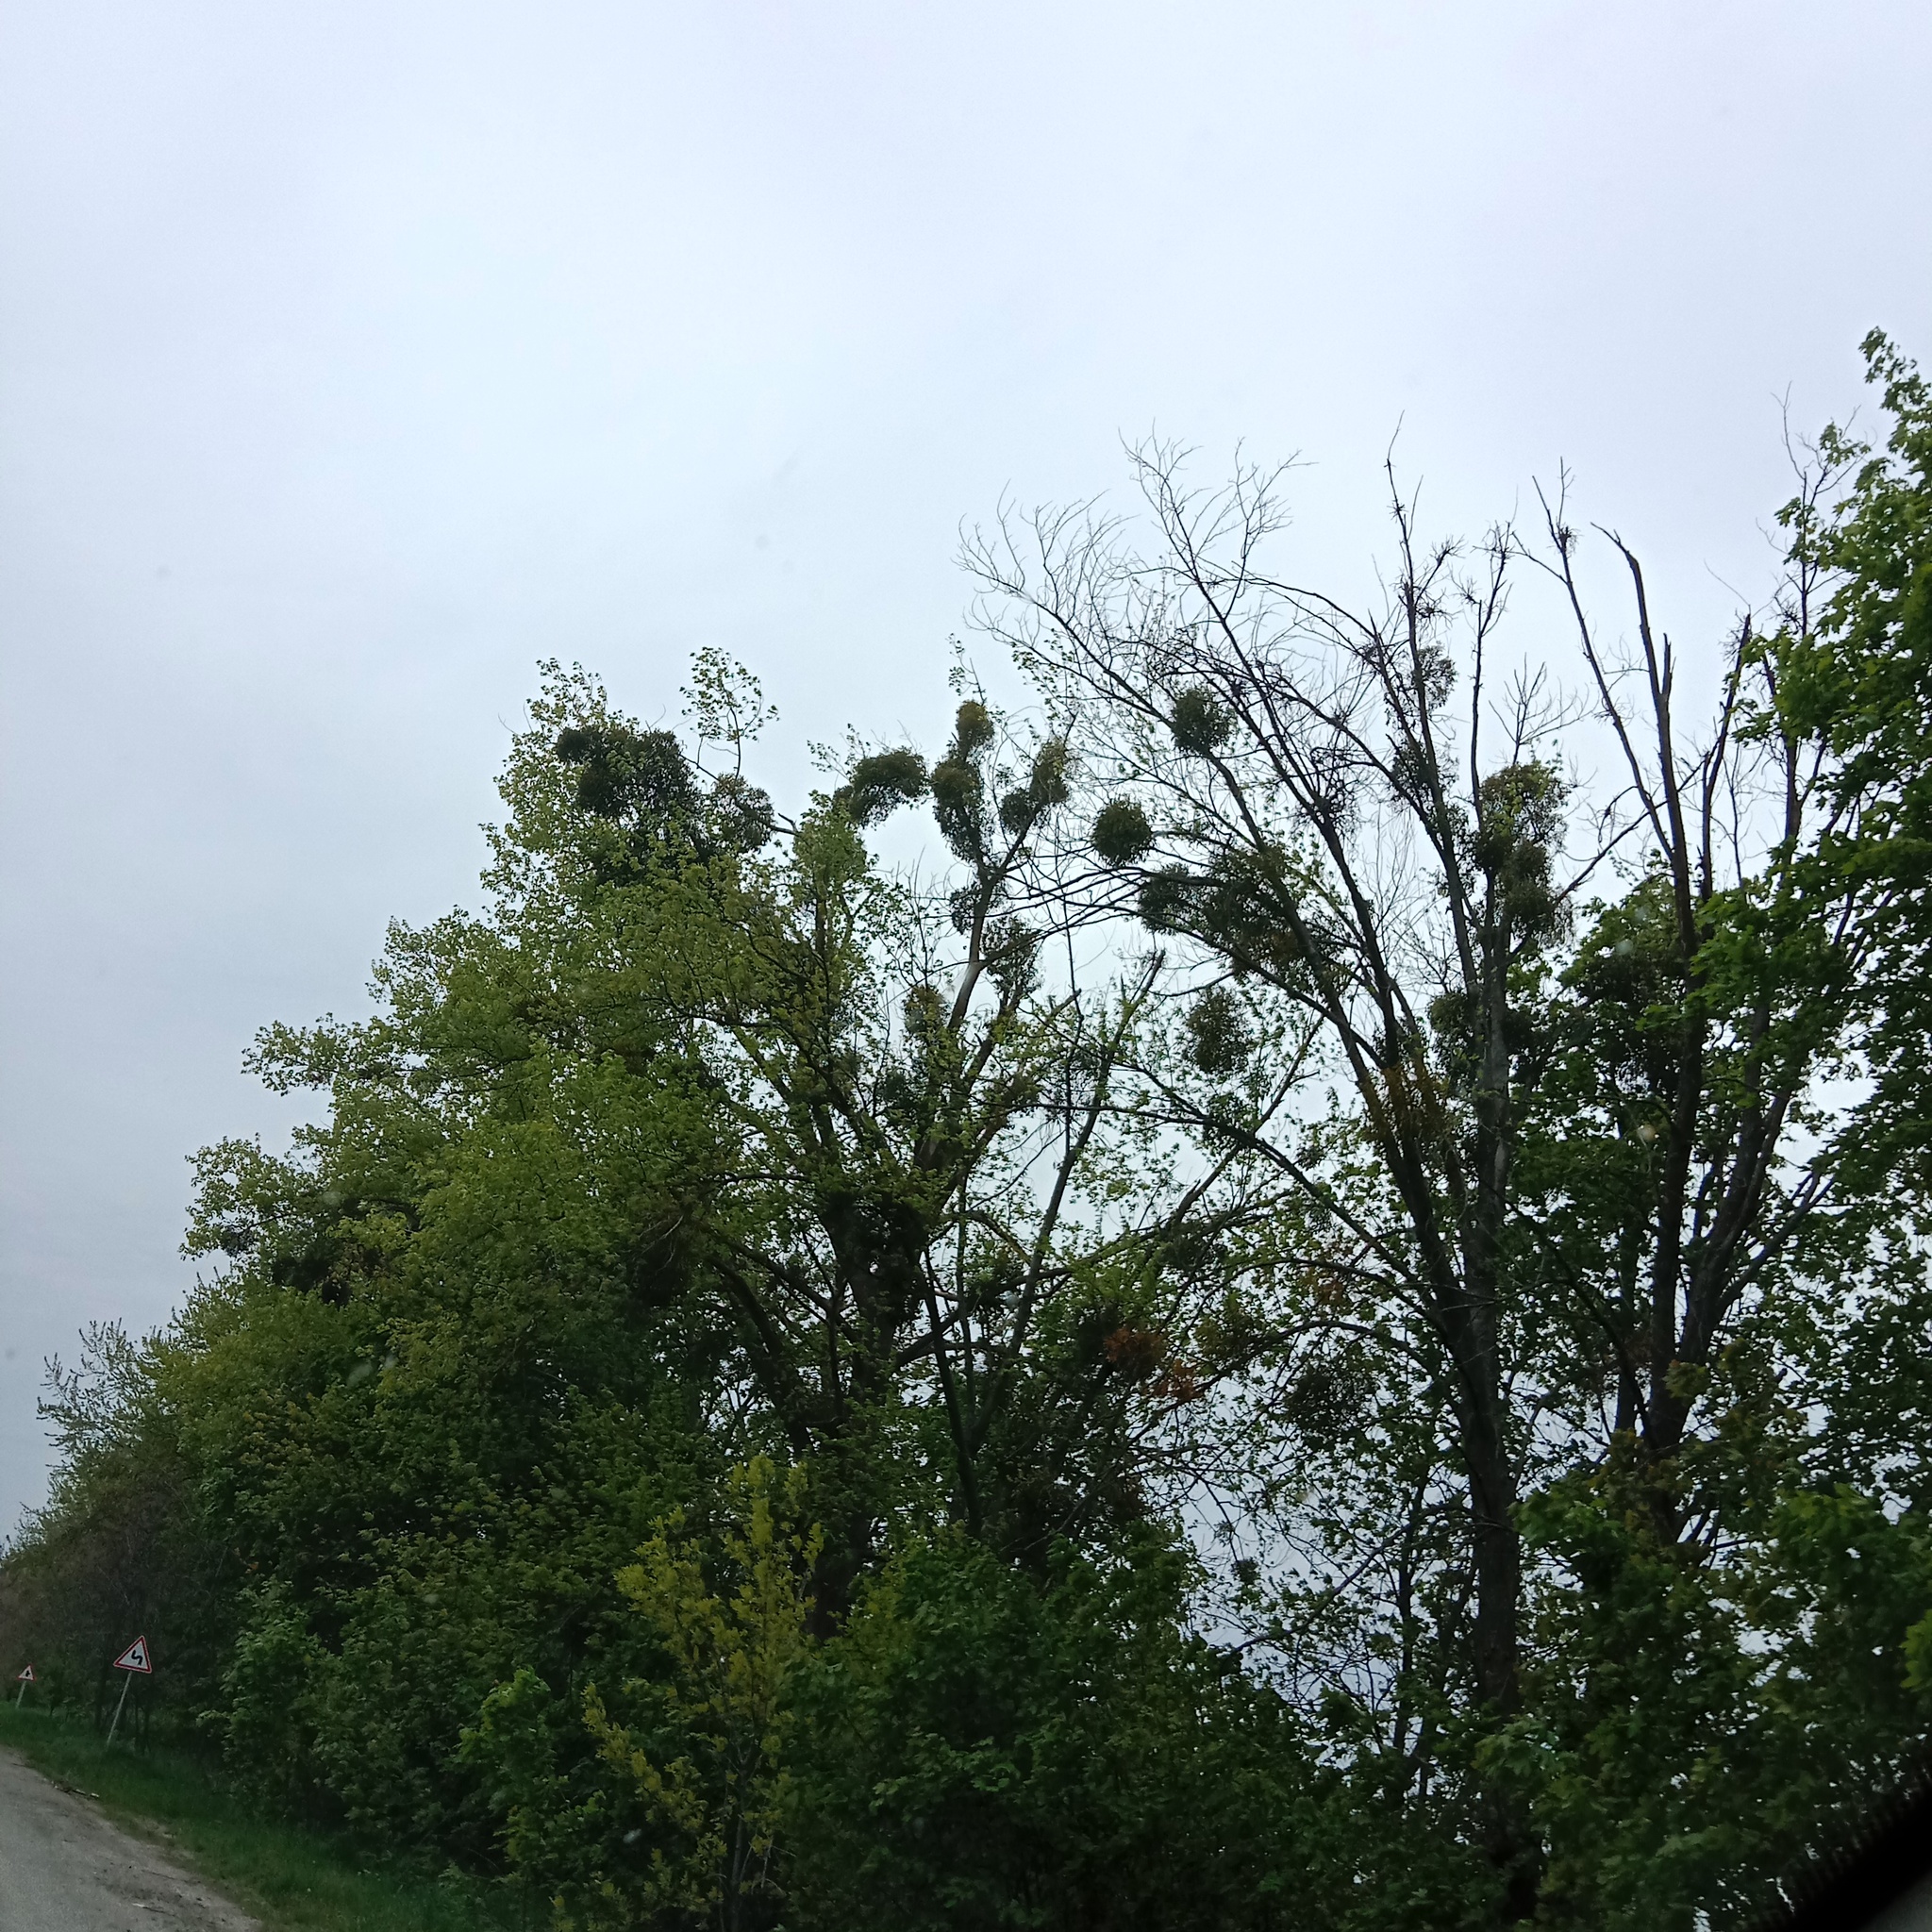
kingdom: Plantae
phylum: Tracheophyta
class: Magnoliopsida
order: Santalales
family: Viscaceae
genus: Viscum
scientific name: Viscum album
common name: Mistletoe
